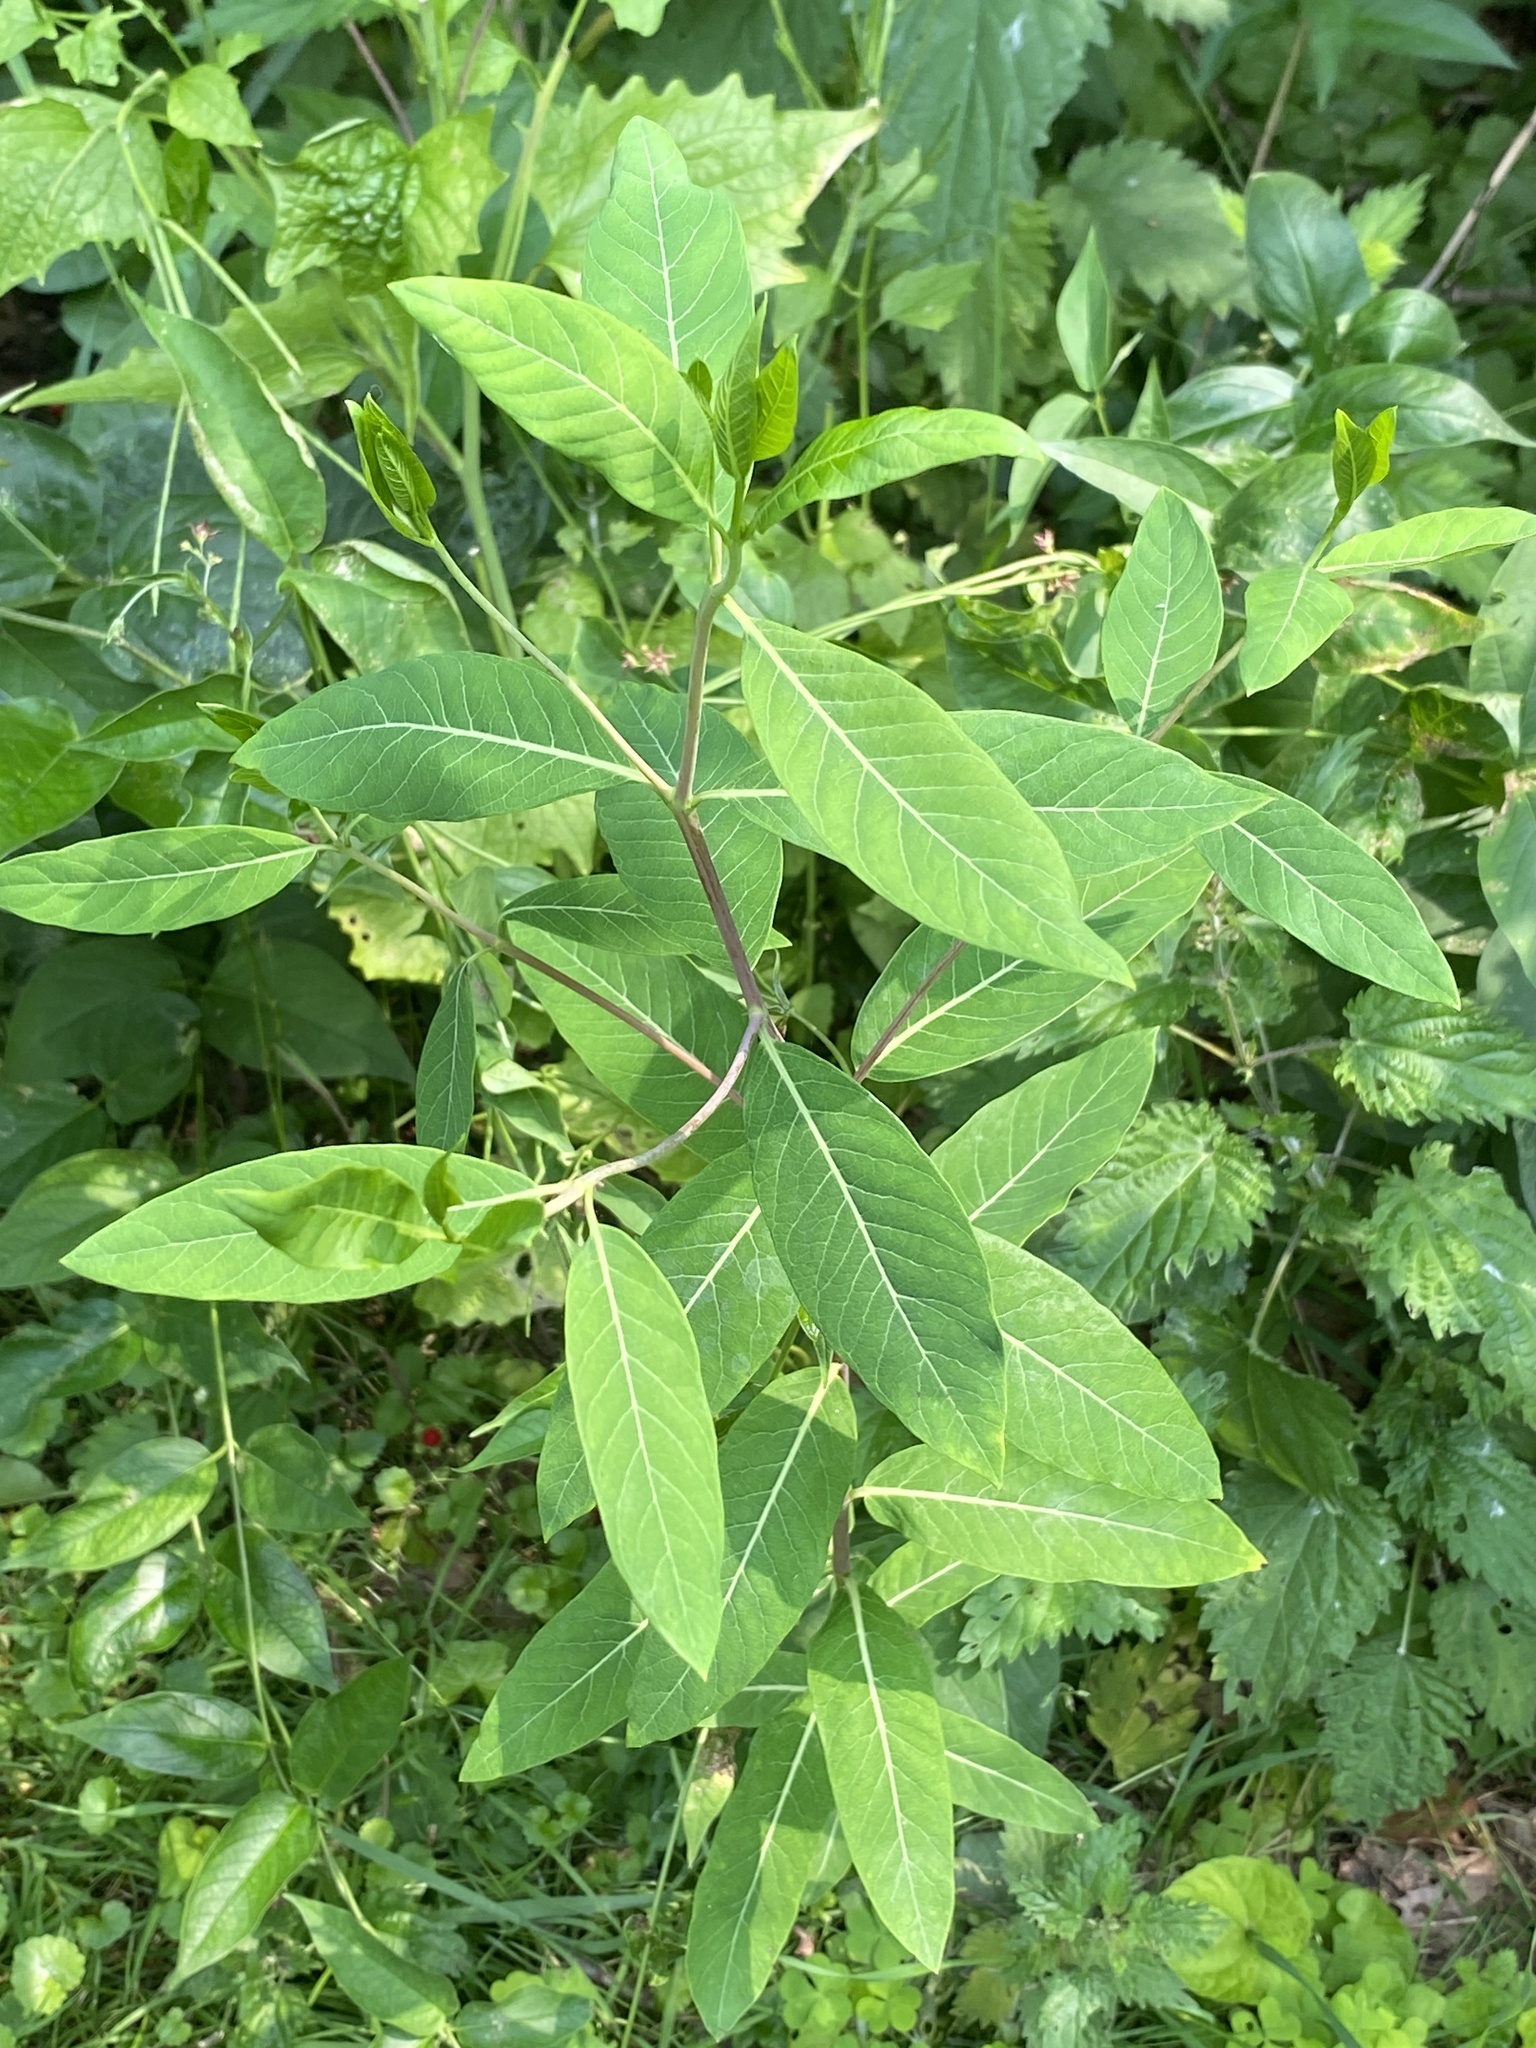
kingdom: Plantae
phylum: Tracheophyta
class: Magnoliopsida
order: Gentianales
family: Apocynaceae
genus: Apocynum
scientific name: Apocynum cannabinum
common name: Hemp dogbane
